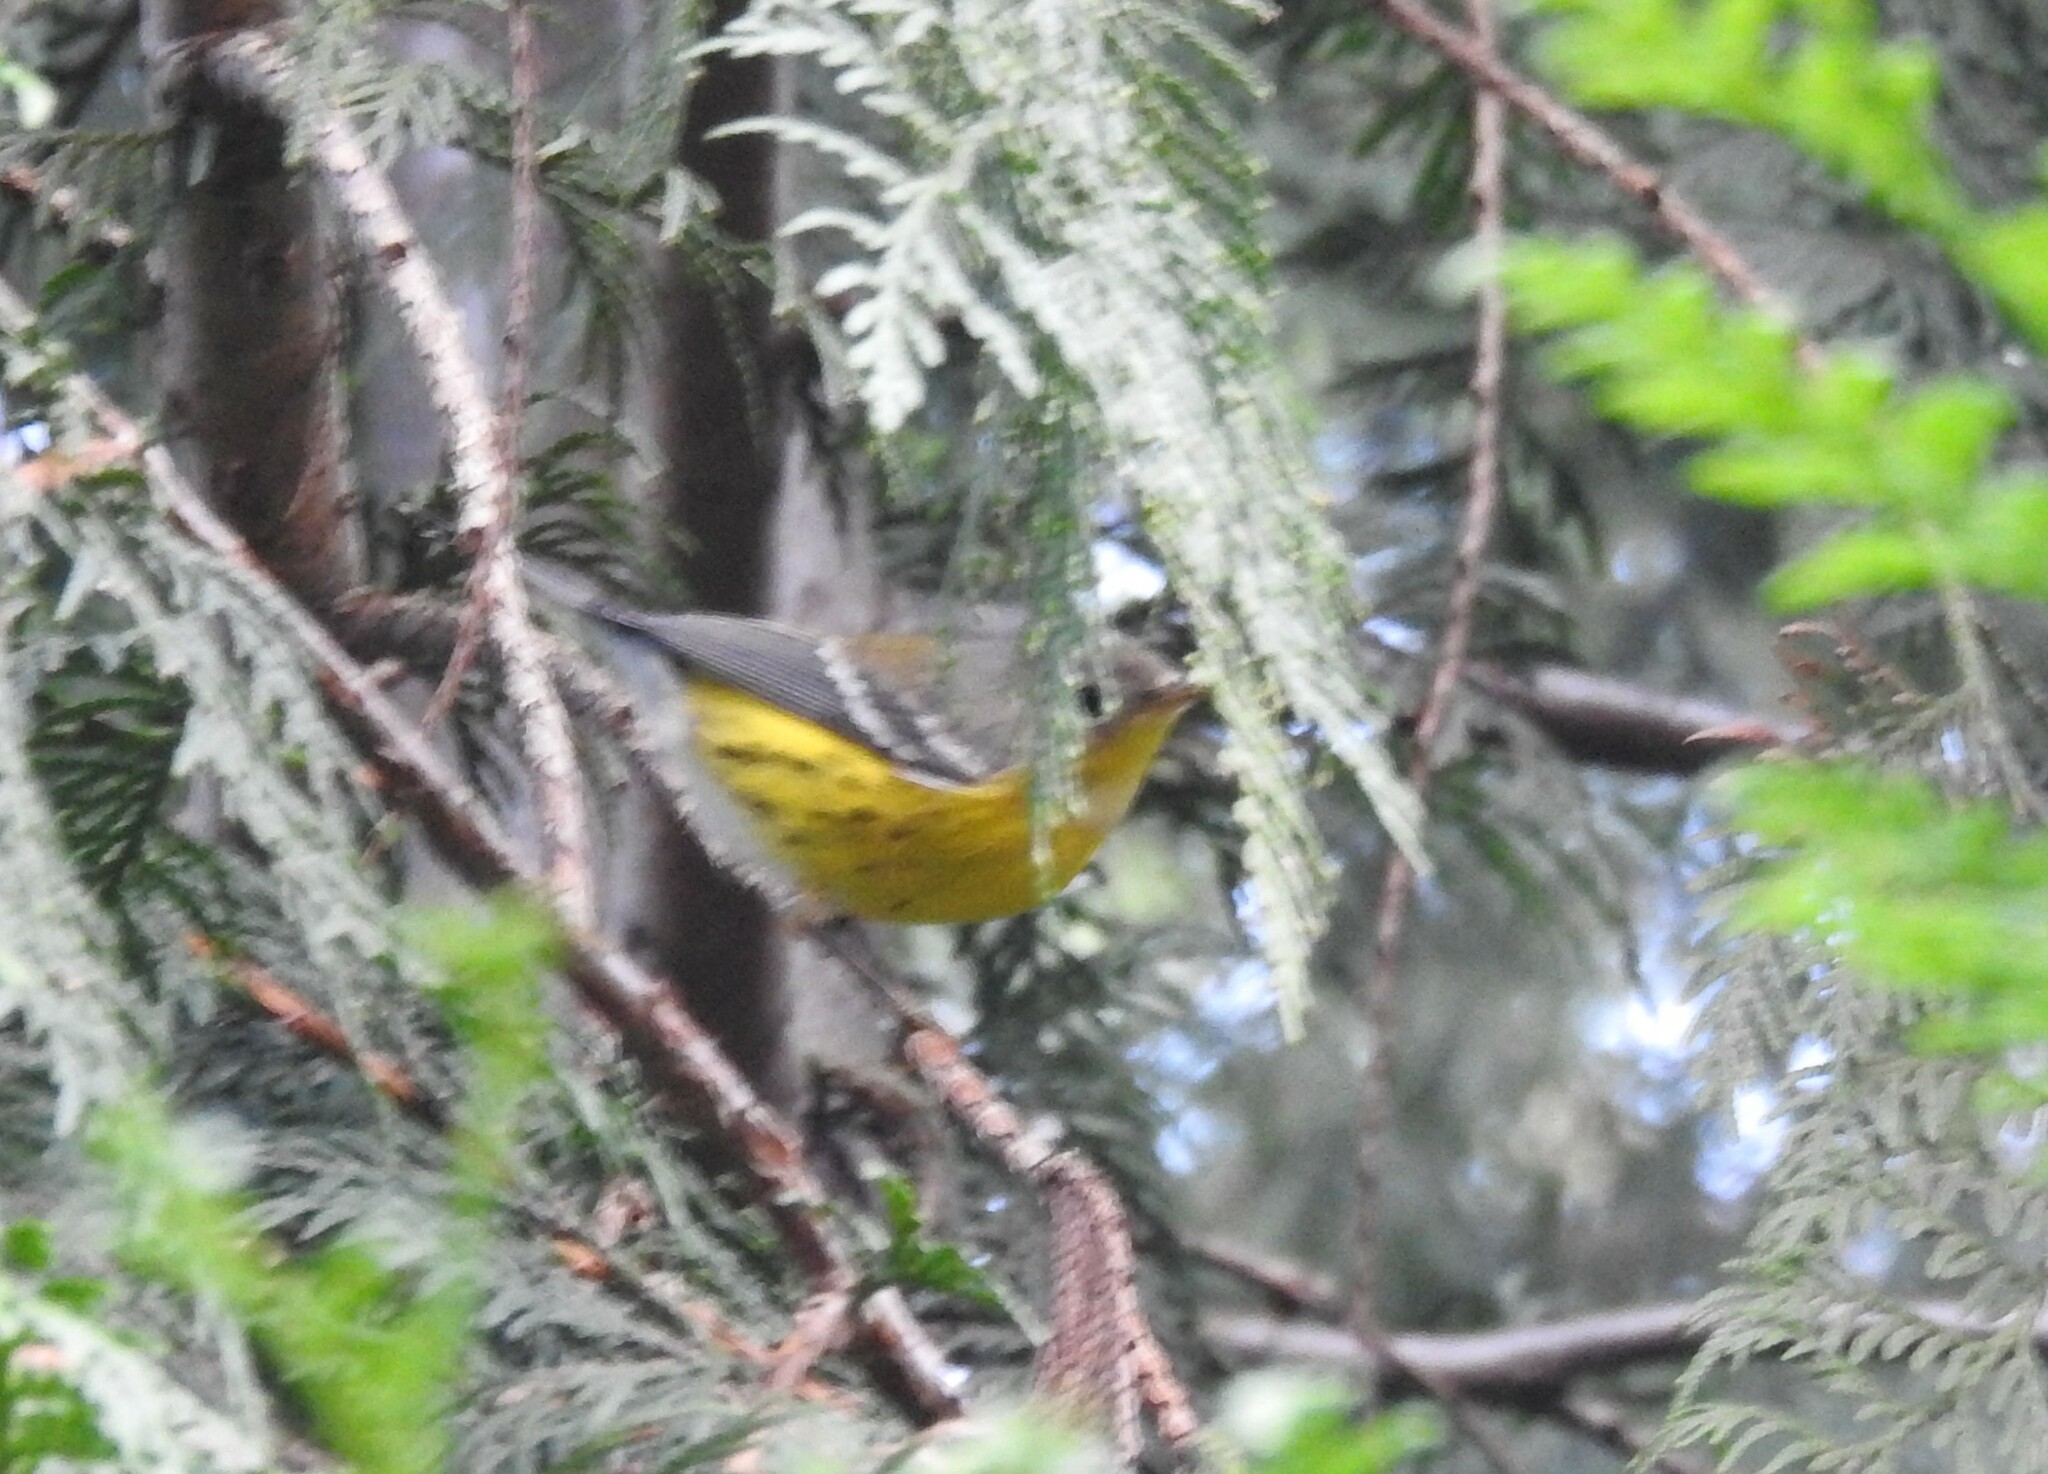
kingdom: Animalia
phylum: Chordata
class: Aves
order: Passeriformes
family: Parulidae
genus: Setophaga
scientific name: Setophaga magnolia
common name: Magnolia warbler
